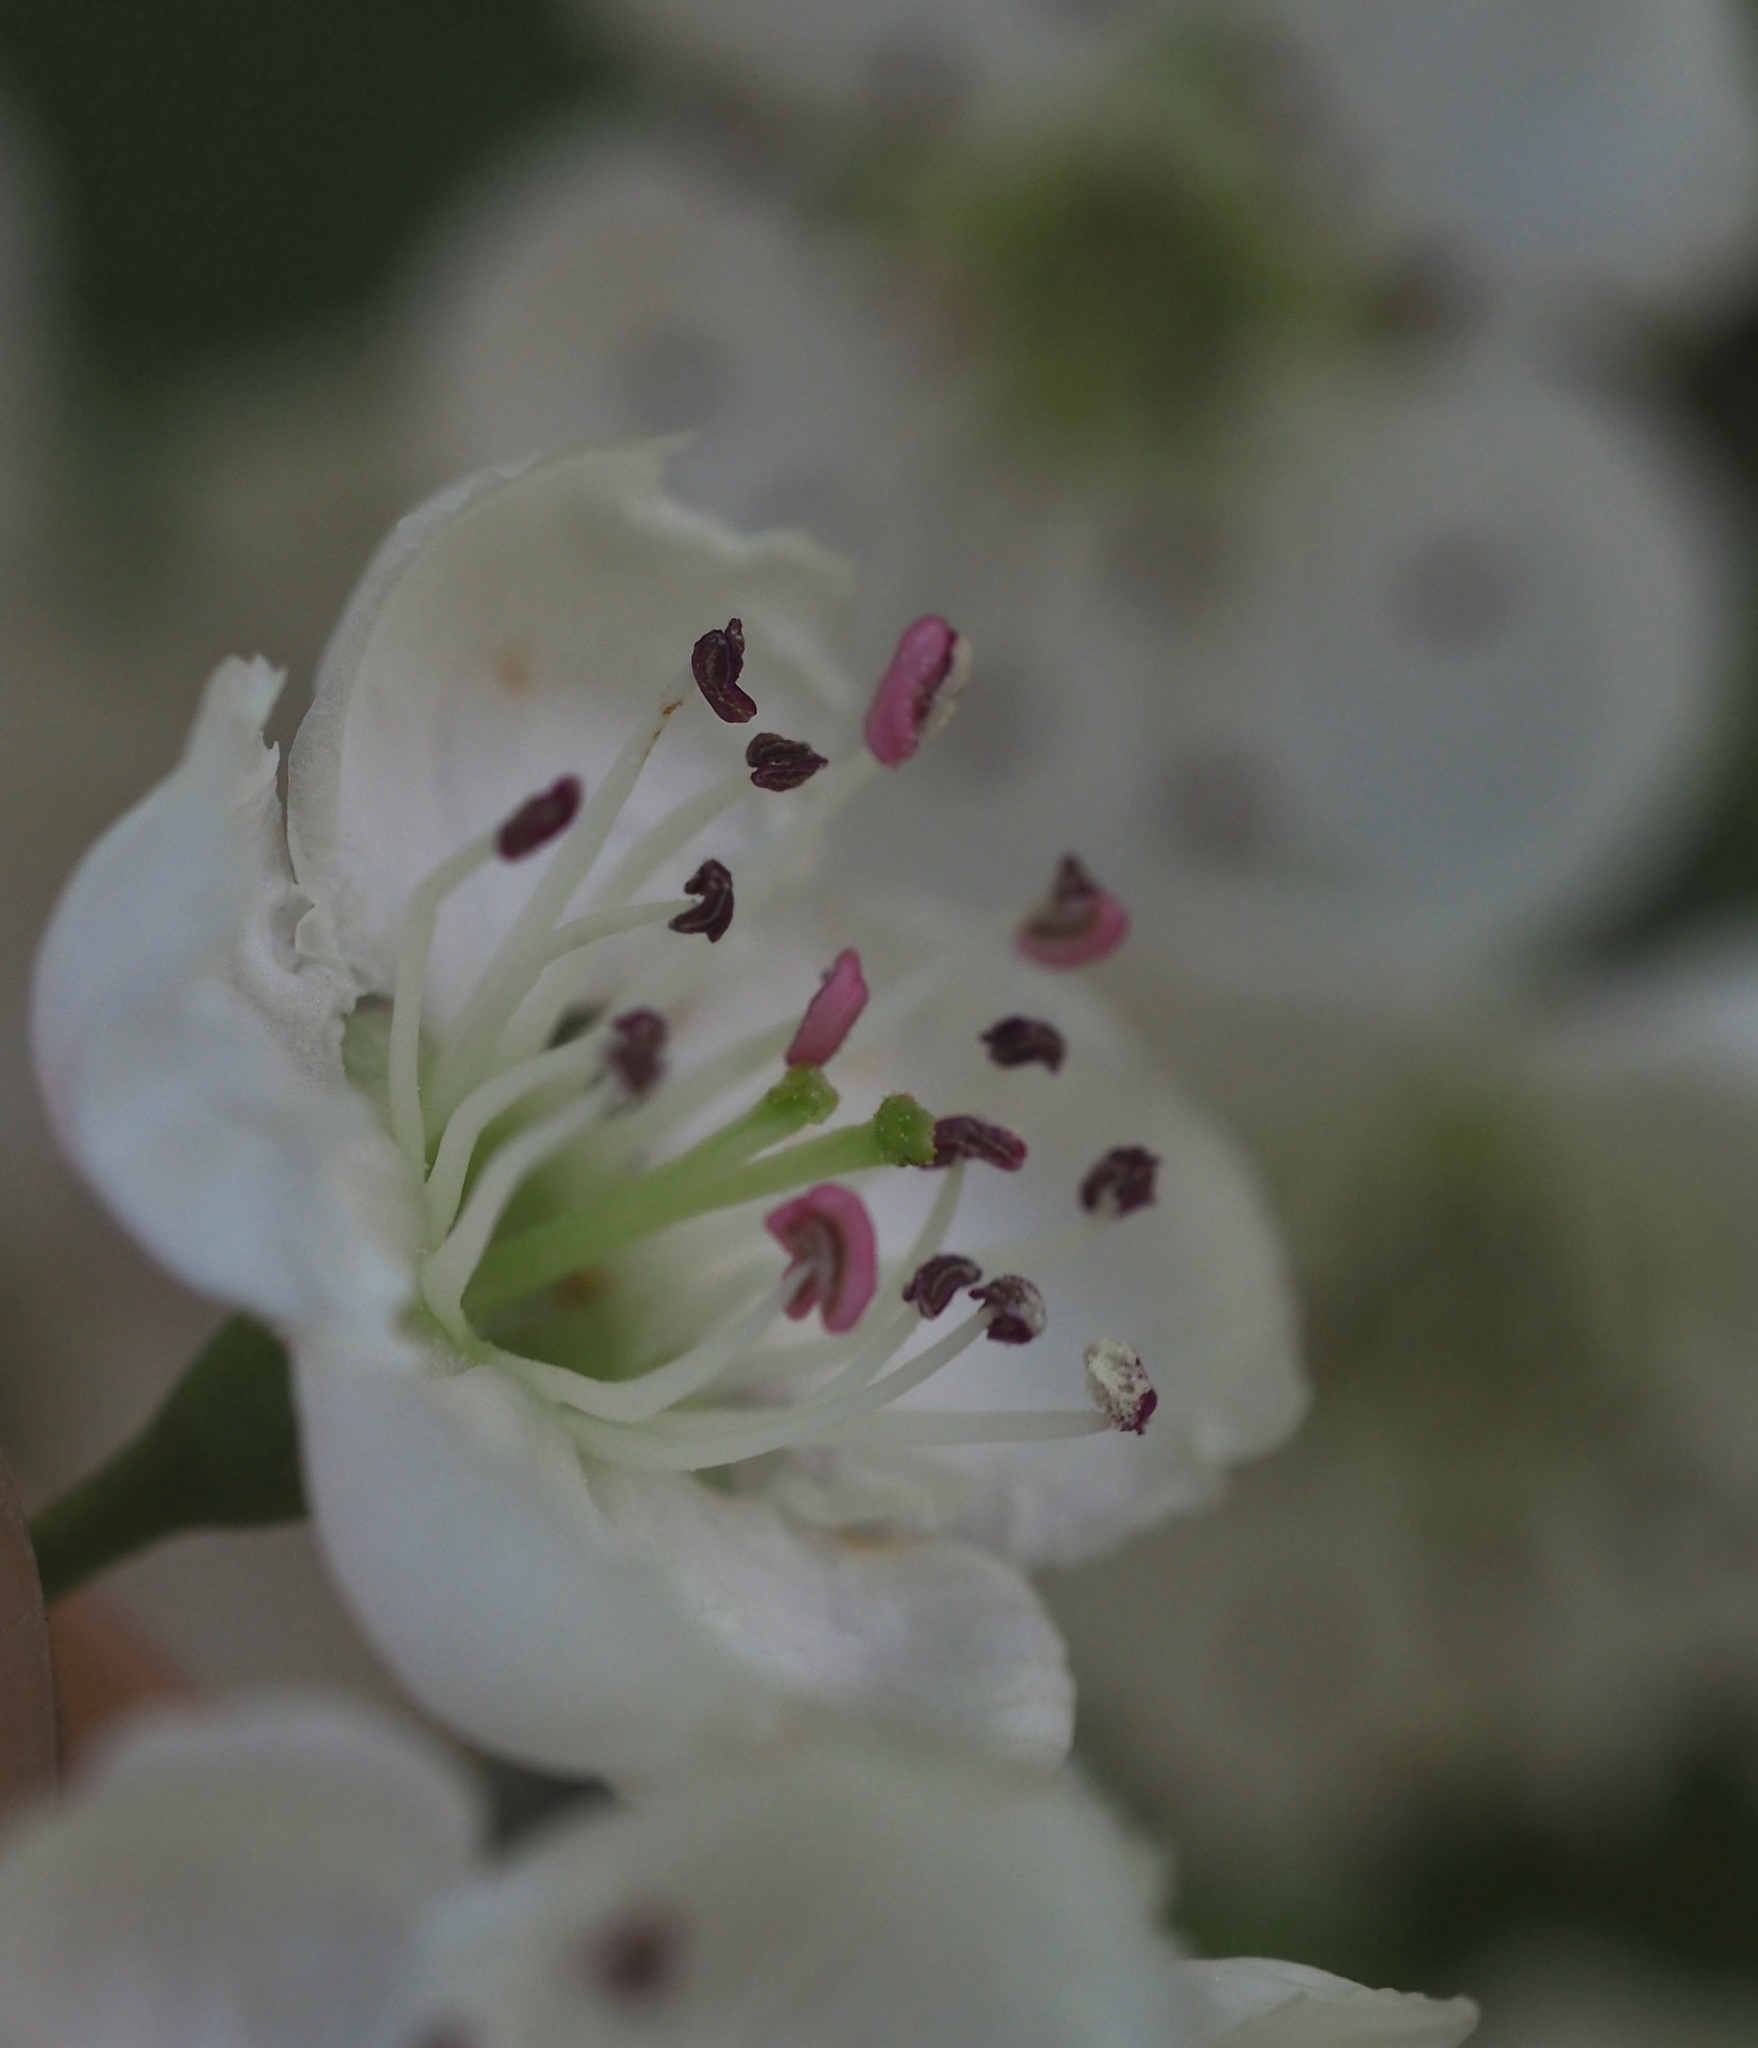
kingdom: Plantae
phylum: Tracheophyta
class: Magnoliopsida
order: Rosales
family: Rosaceae
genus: Crataegus
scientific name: Crataegus laevigata
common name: Midland hawthorn
